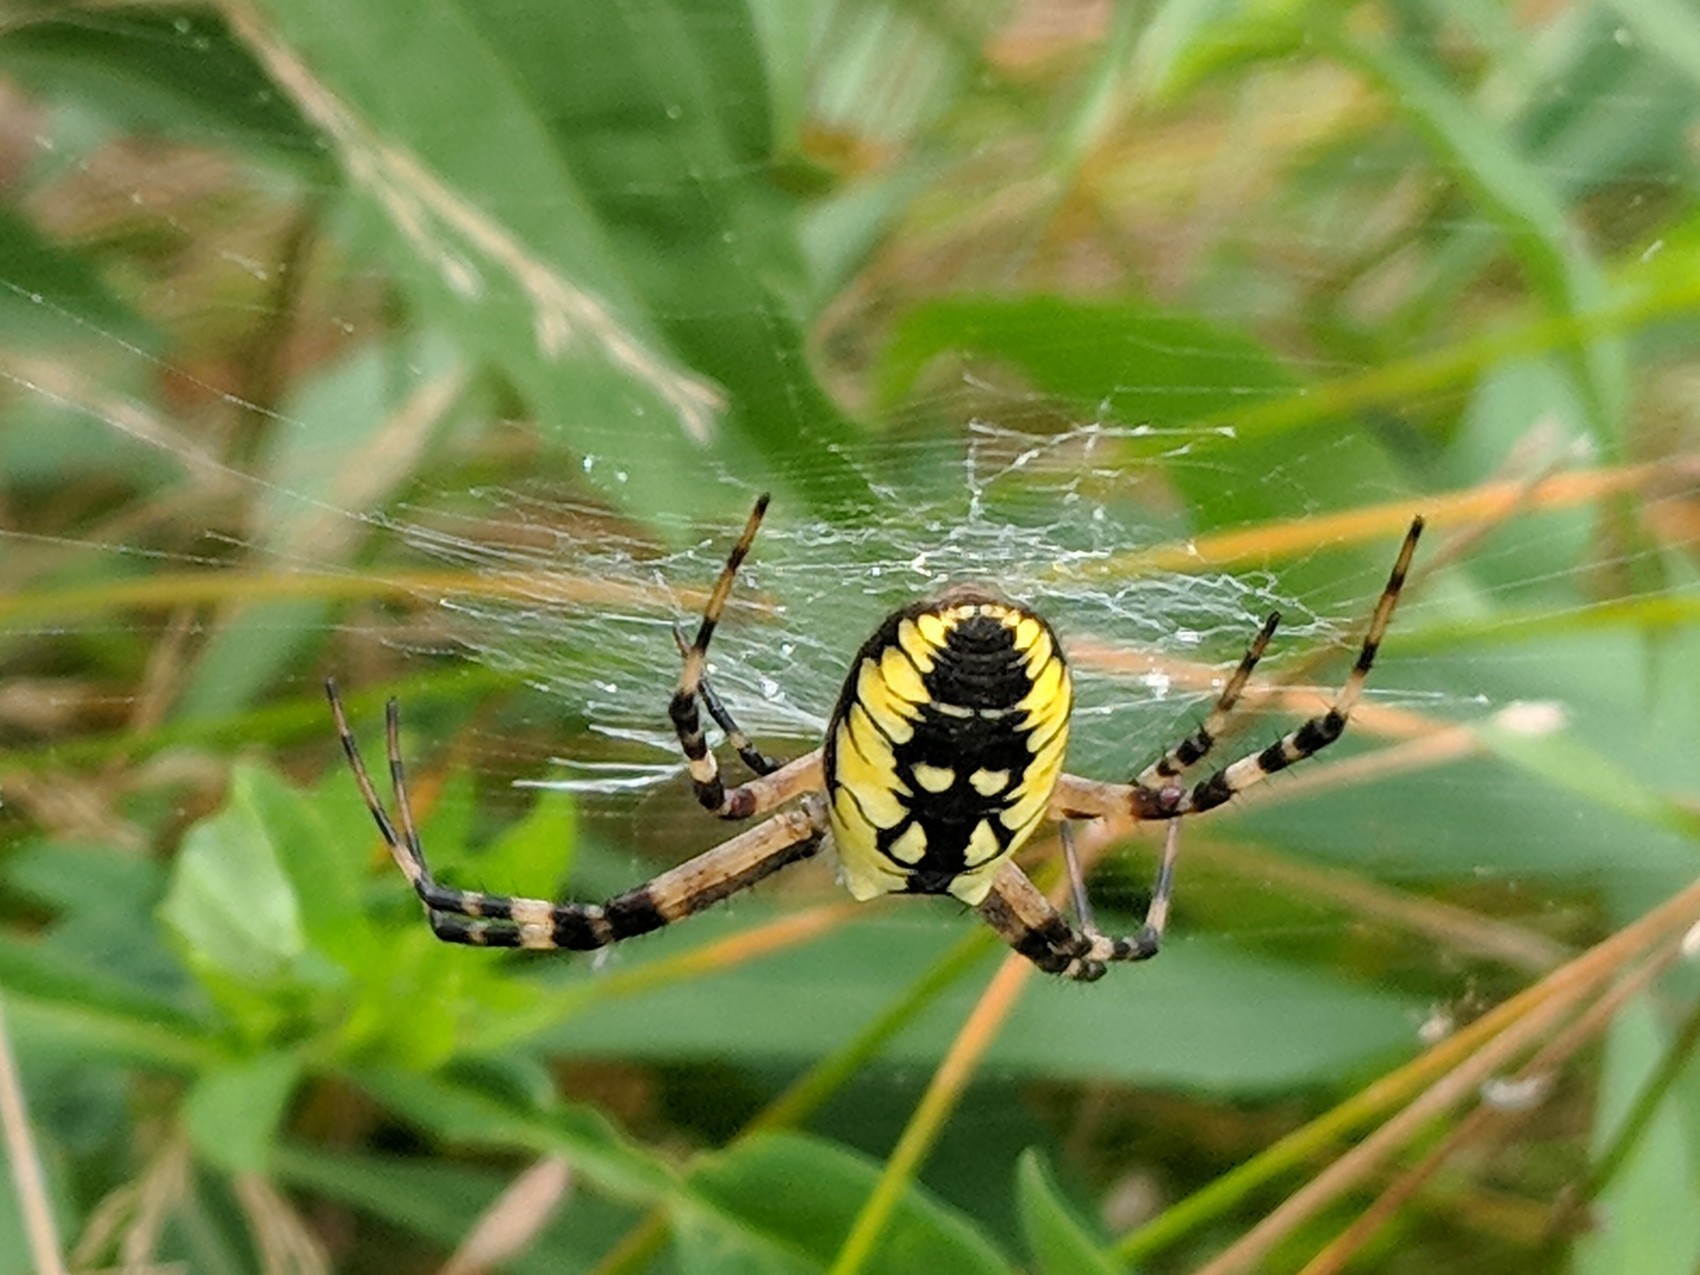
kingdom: Animalia
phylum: Arthropoda
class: Arachnida
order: Araneae
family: Araneidae
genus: Argiope
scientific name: Argiope aurantia
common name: Orb weavers
